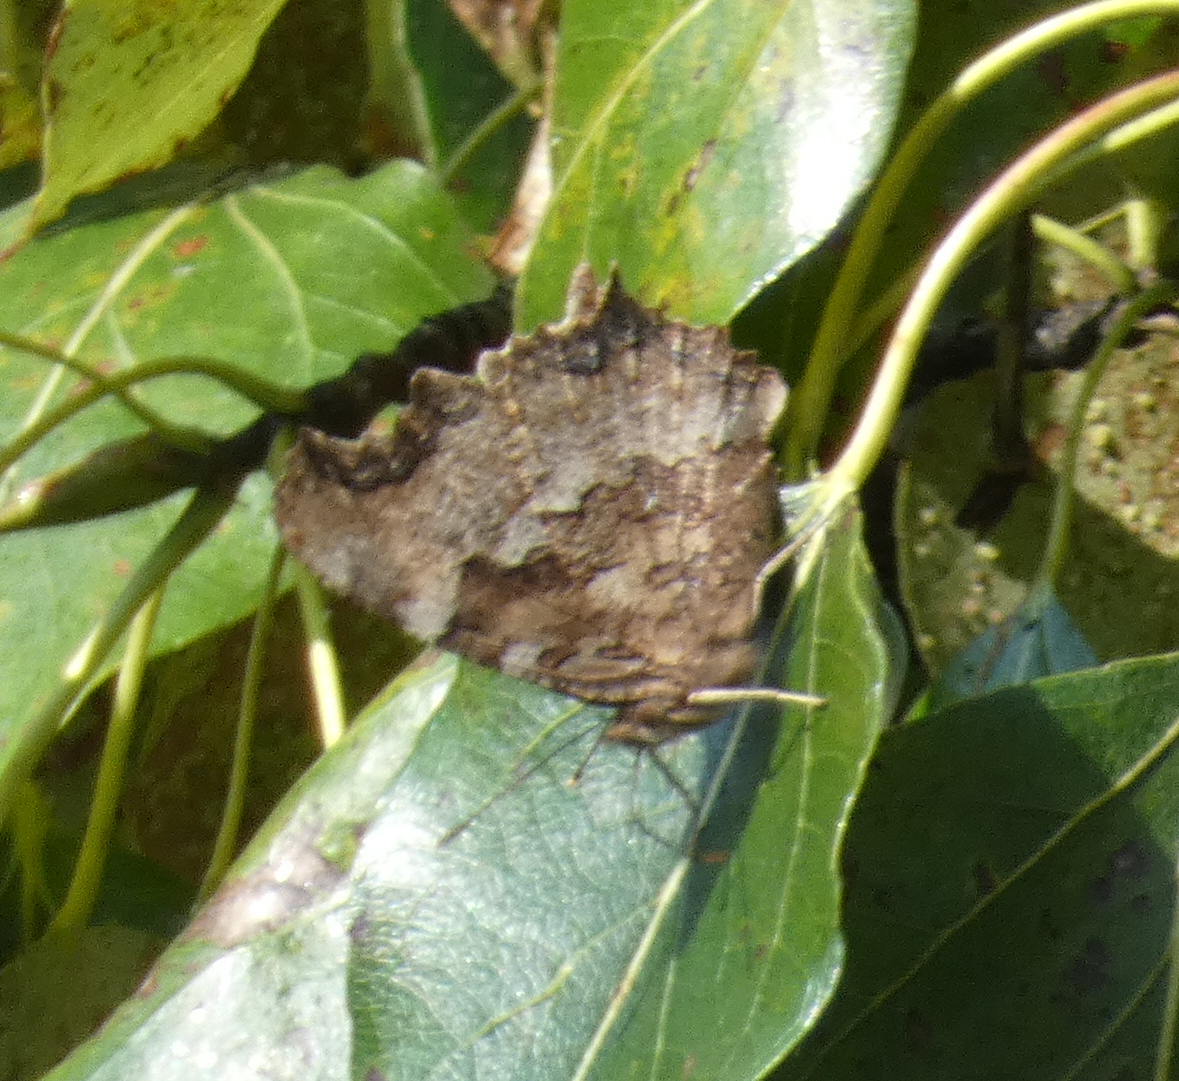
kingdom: Animalia
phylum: Arthropoda
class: Insecta
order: Lepidoptera
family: Nymphalidae
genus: Polygonia
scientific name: Polygonia vaualbum
